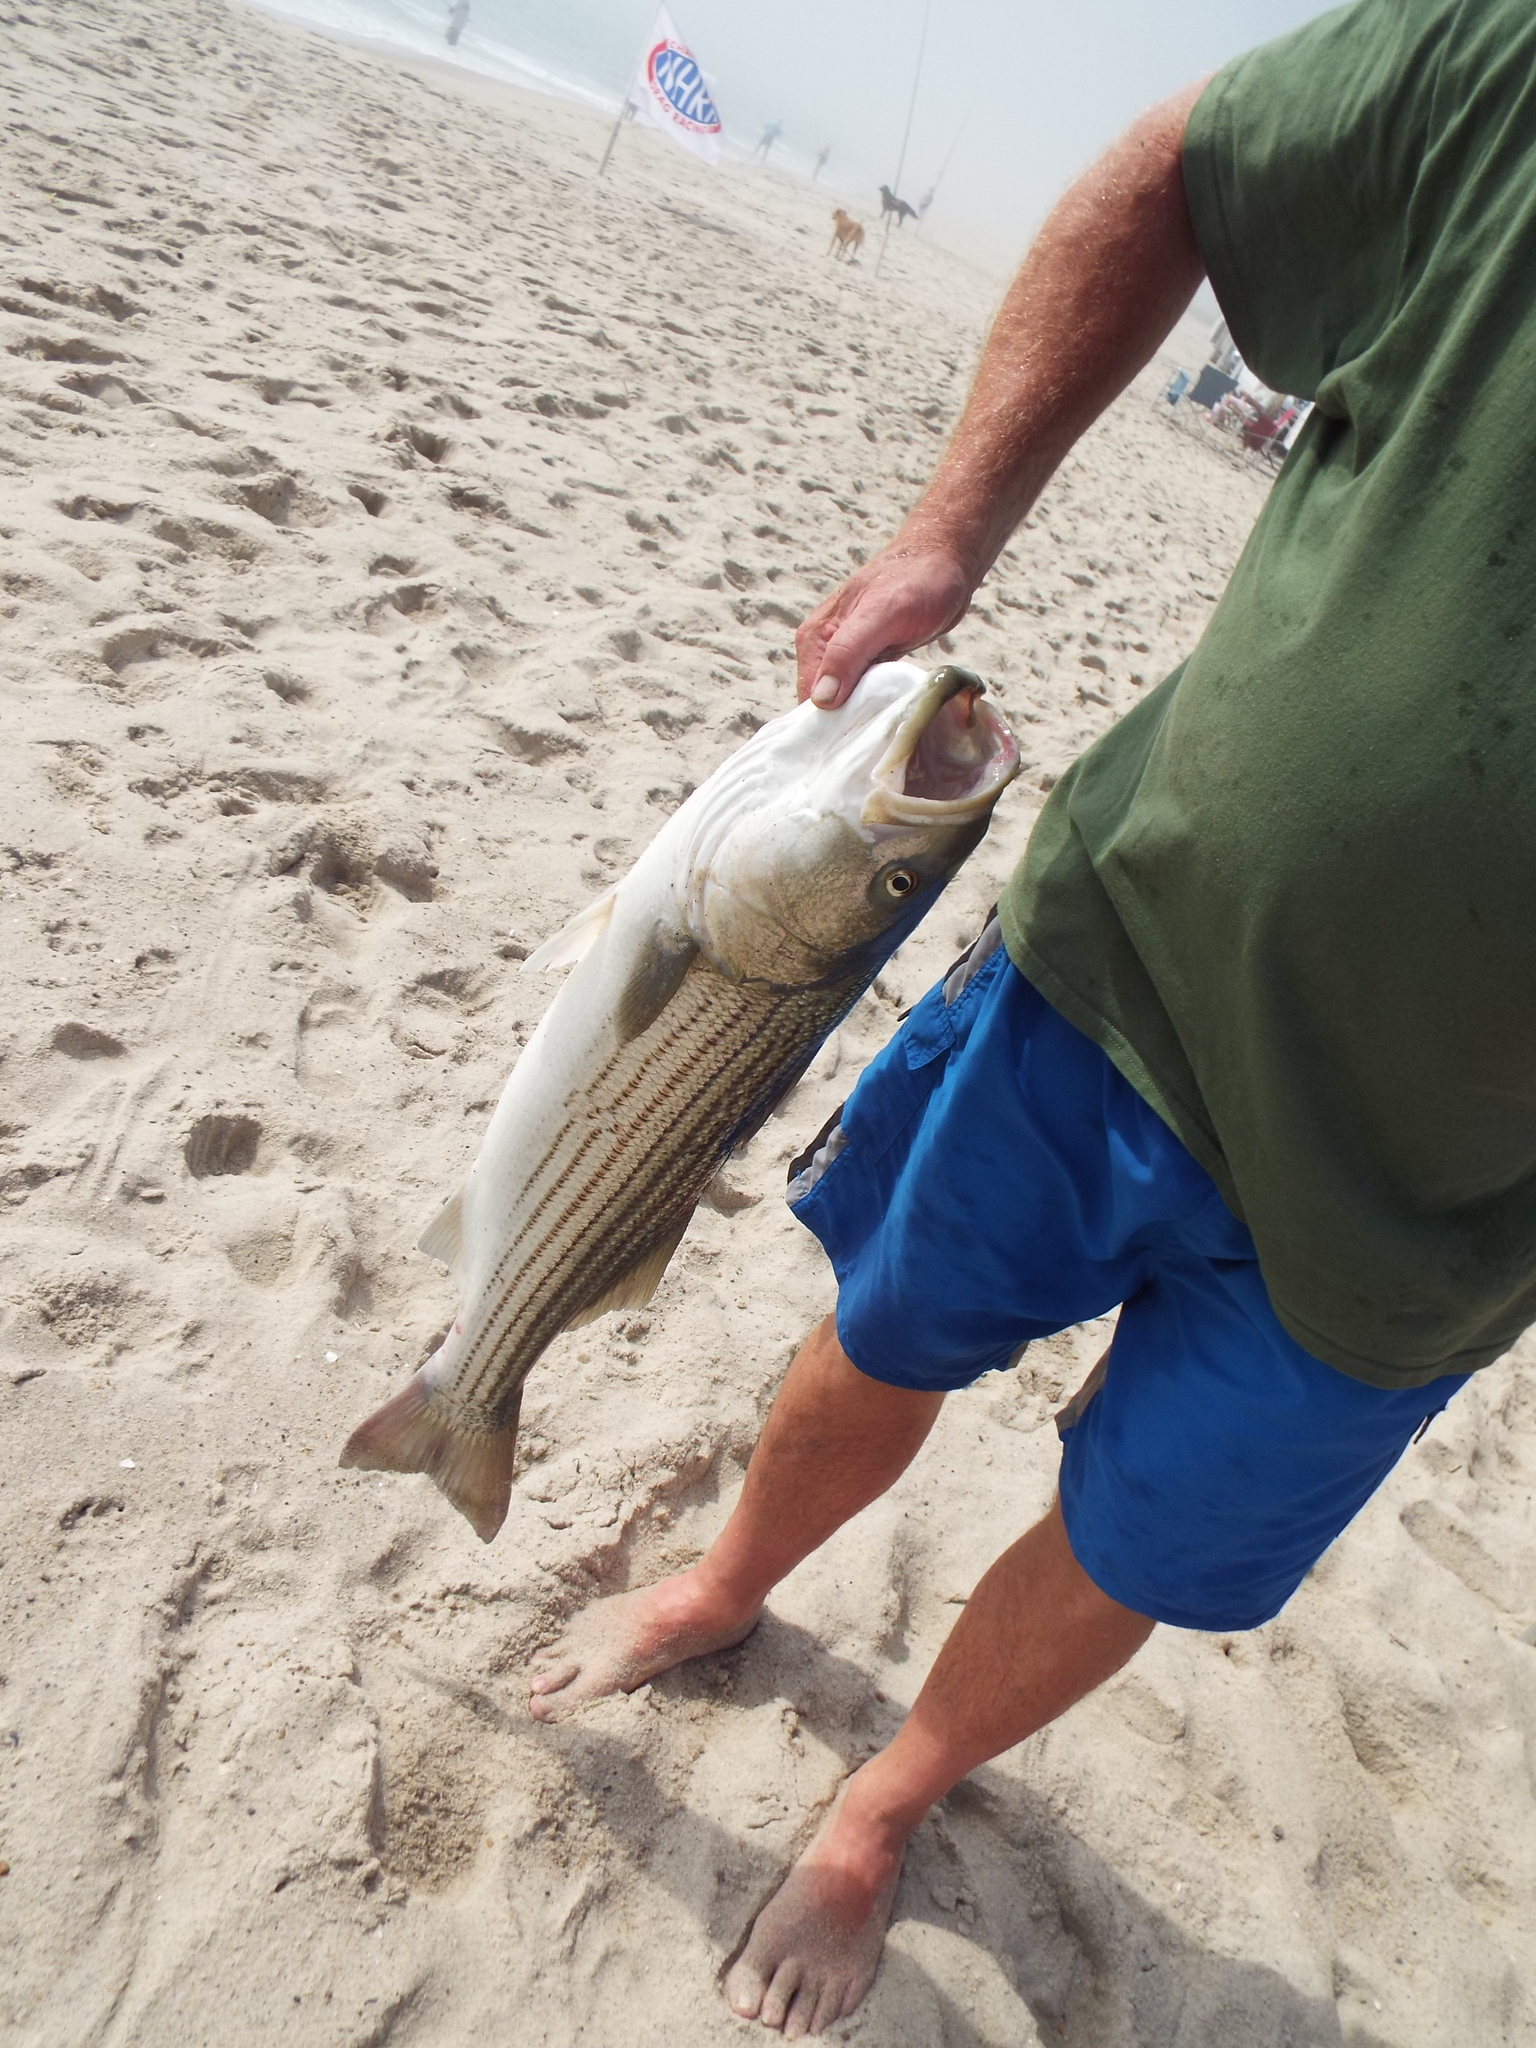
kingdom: Animalia
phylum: Chordata
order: Perciformes
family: Moronidae
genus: Morone
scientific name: Morone saxatilis
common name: Striped bass
